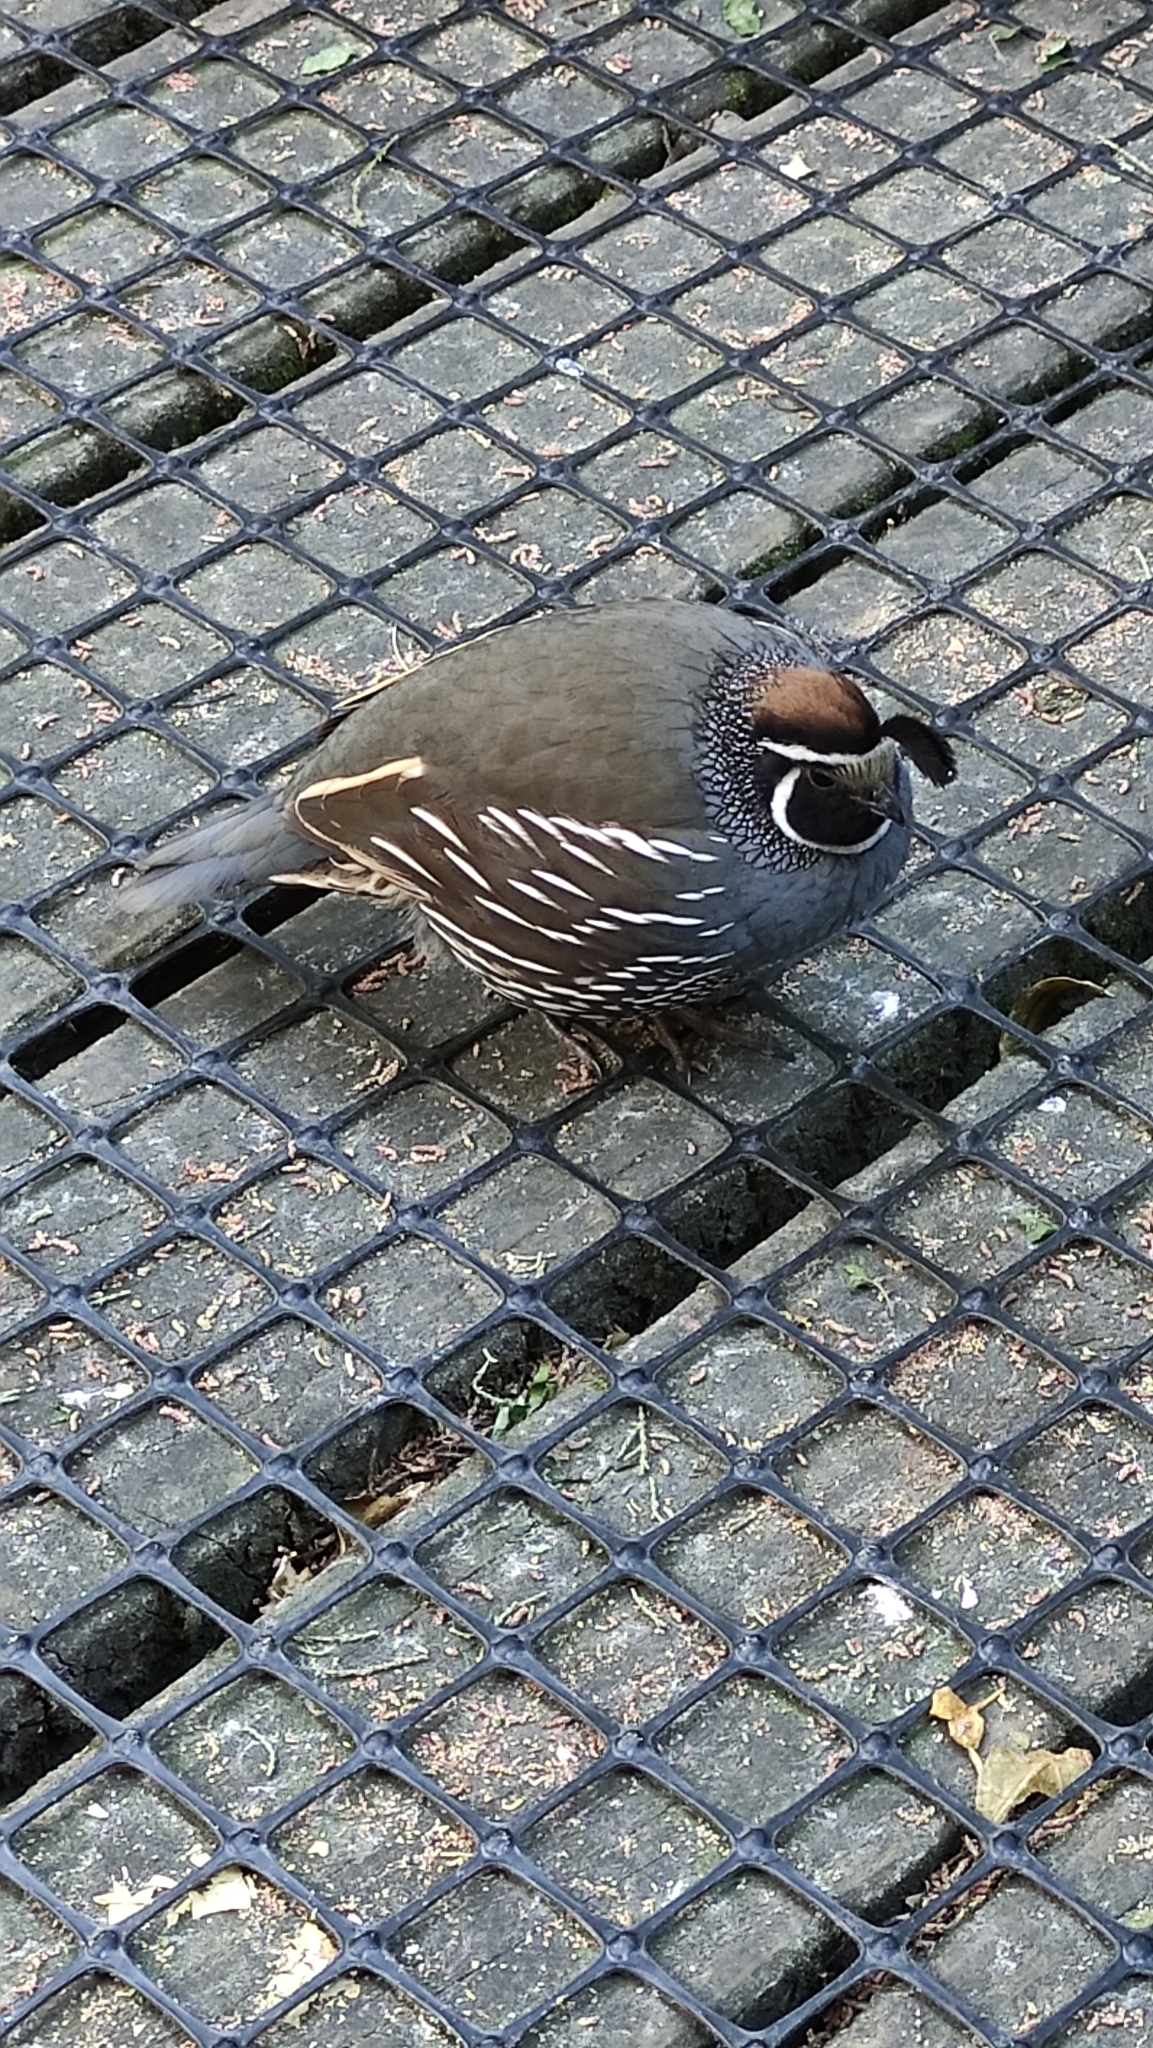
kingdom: Animalia
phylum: Chordata
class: Aves
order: Galliformes
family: Odontophoridae
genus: Callipepla
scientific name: Callipepla californica
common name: California quail
